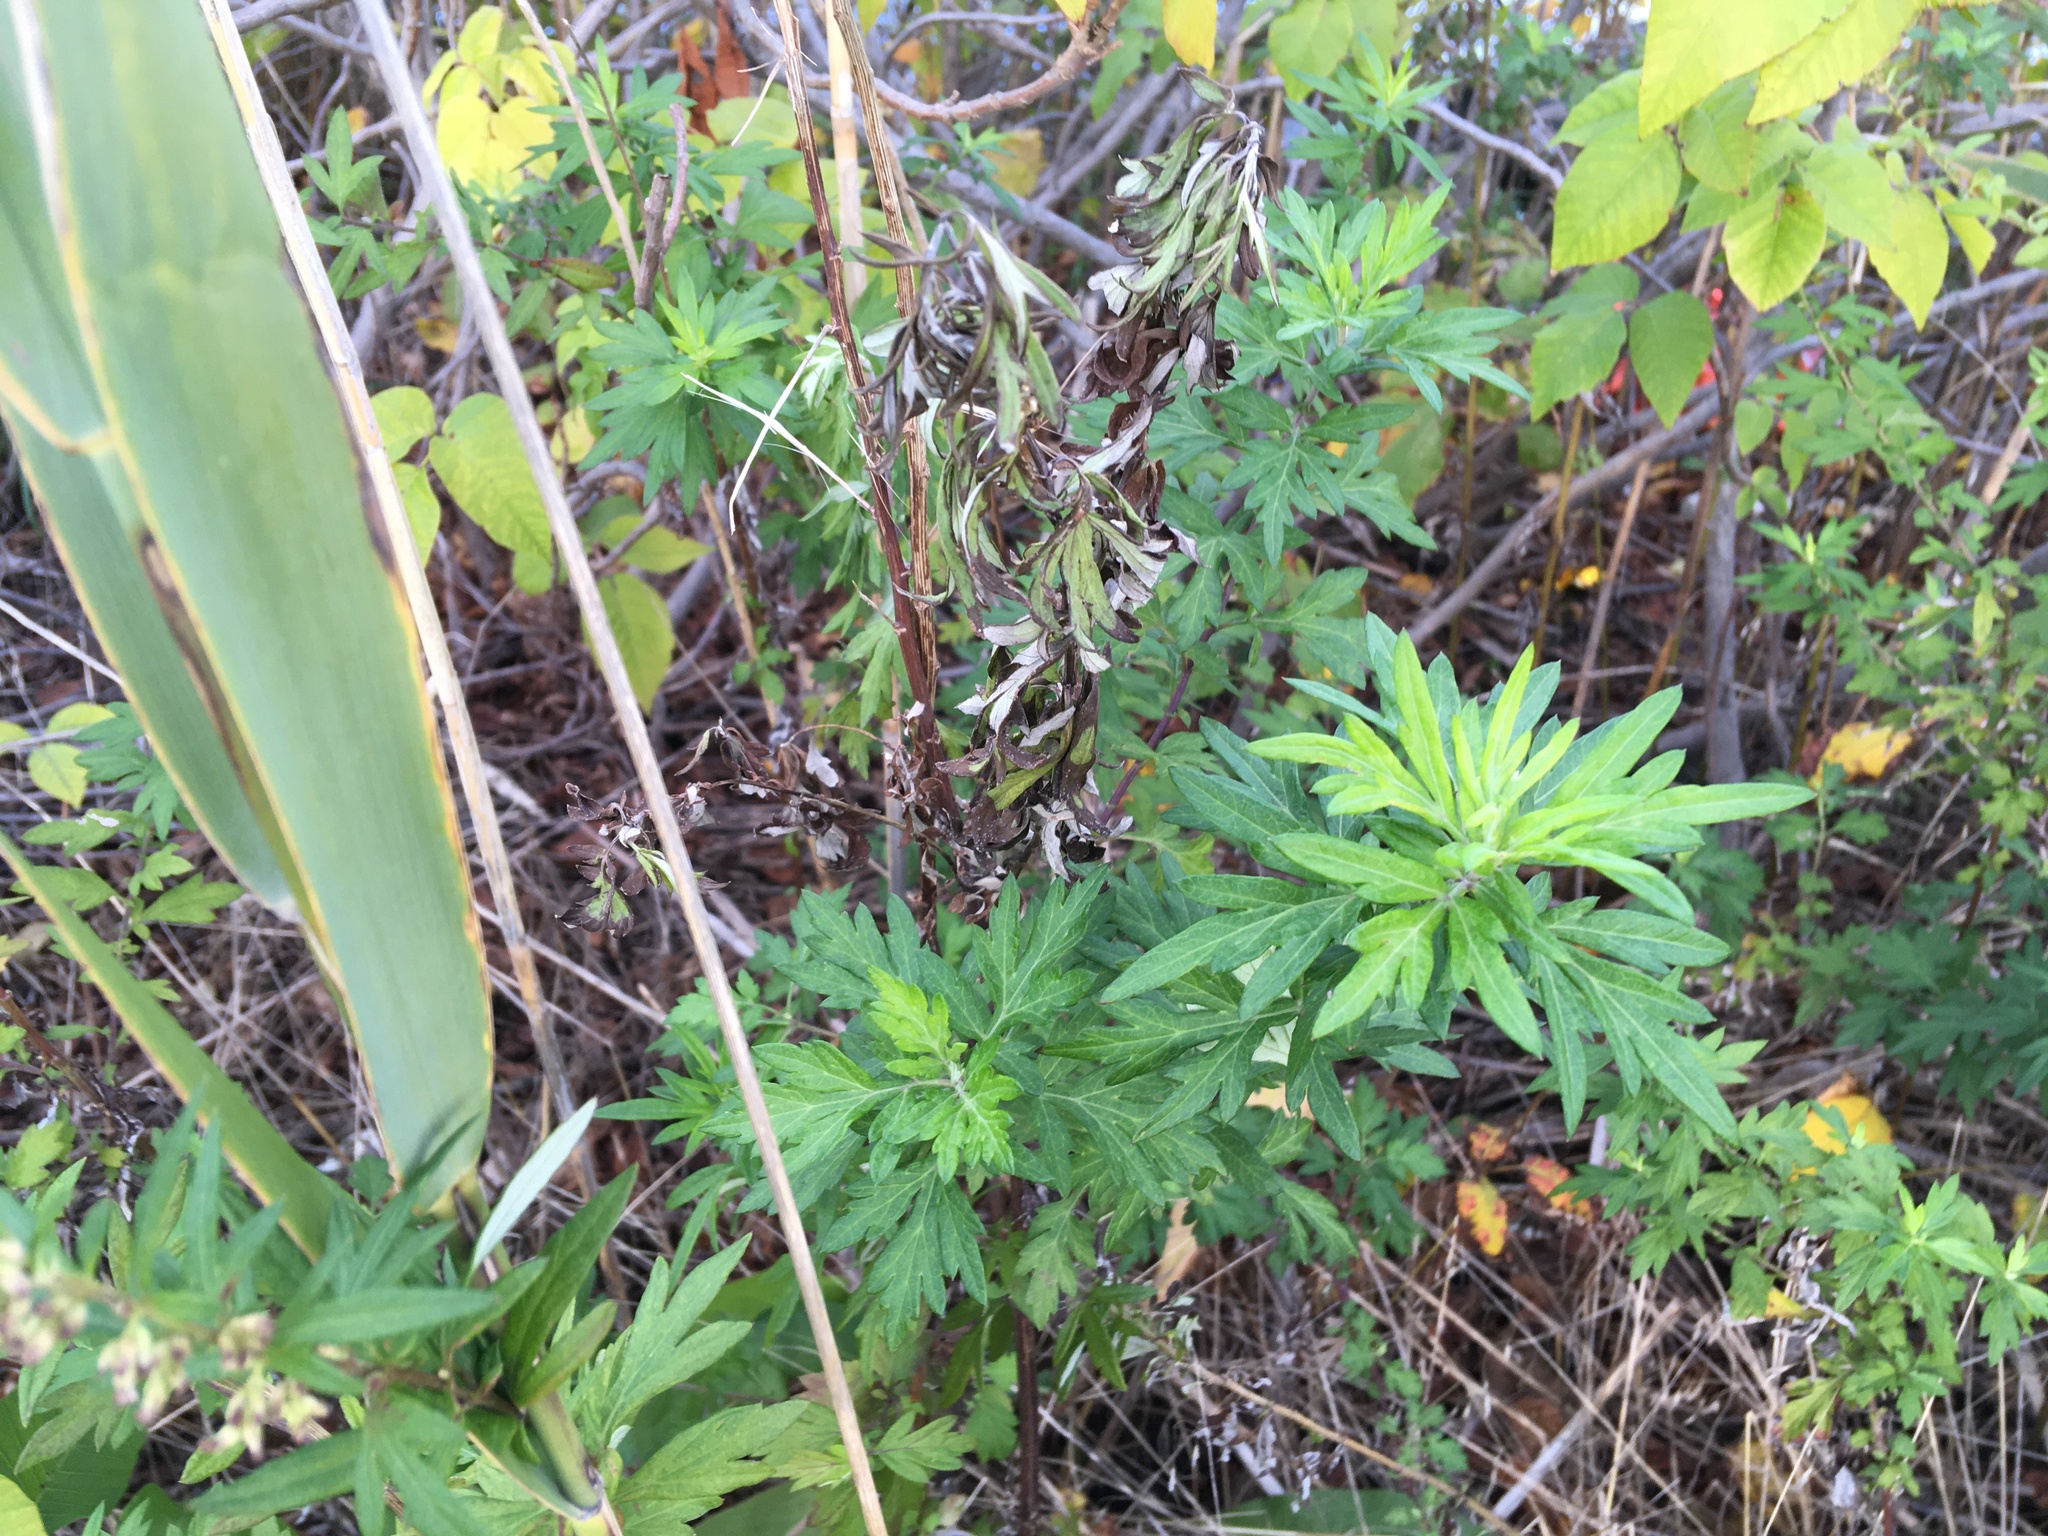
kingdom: Plantae
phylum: Tracheophyta
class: Magnoliopsida
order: Asterales
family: Asteraceae
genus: Artemisia
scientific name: Artemisia vulgaris
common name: Mugwort
